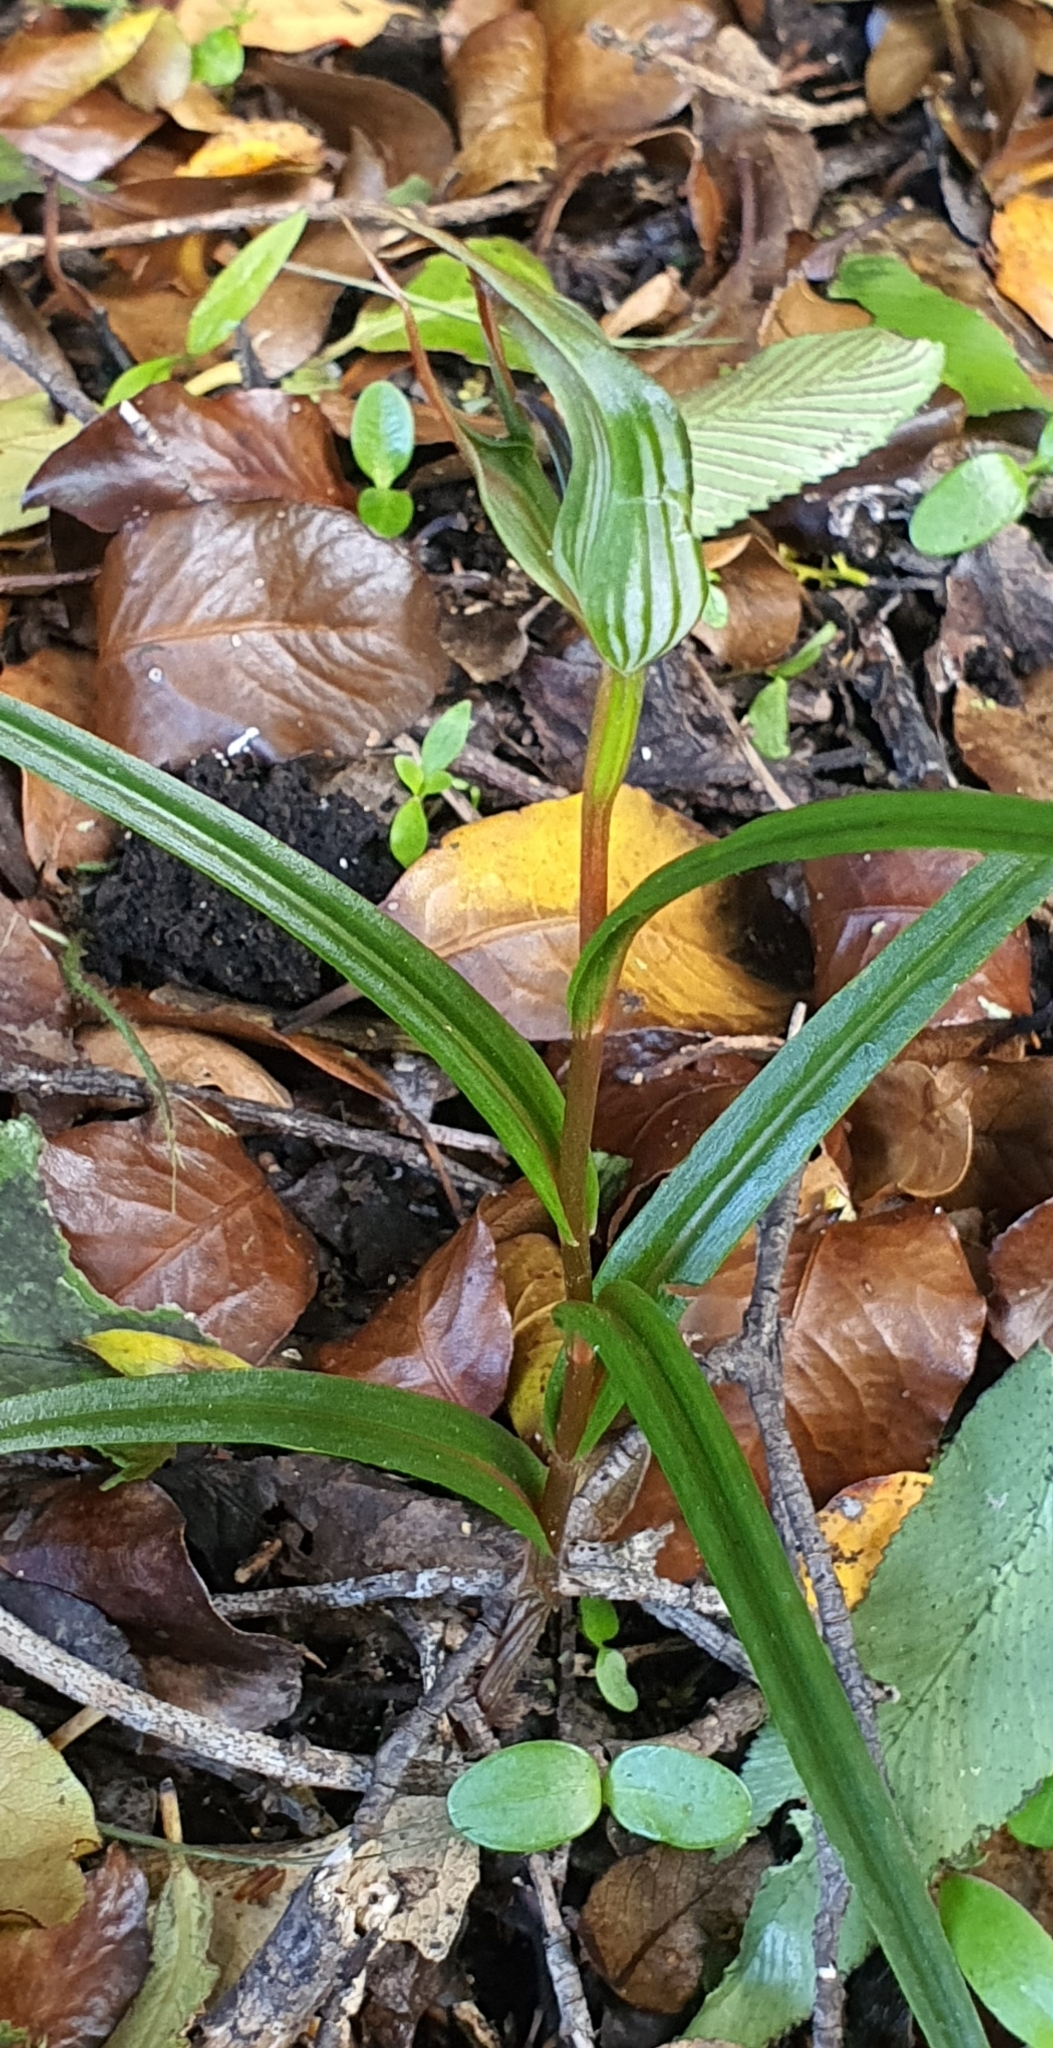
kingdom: Plantae
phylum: Tracheophyta
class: Liliopsida
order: Asparagales
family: Orchidaceae
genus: Pterostylis
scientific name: Pterostylis irwinii
